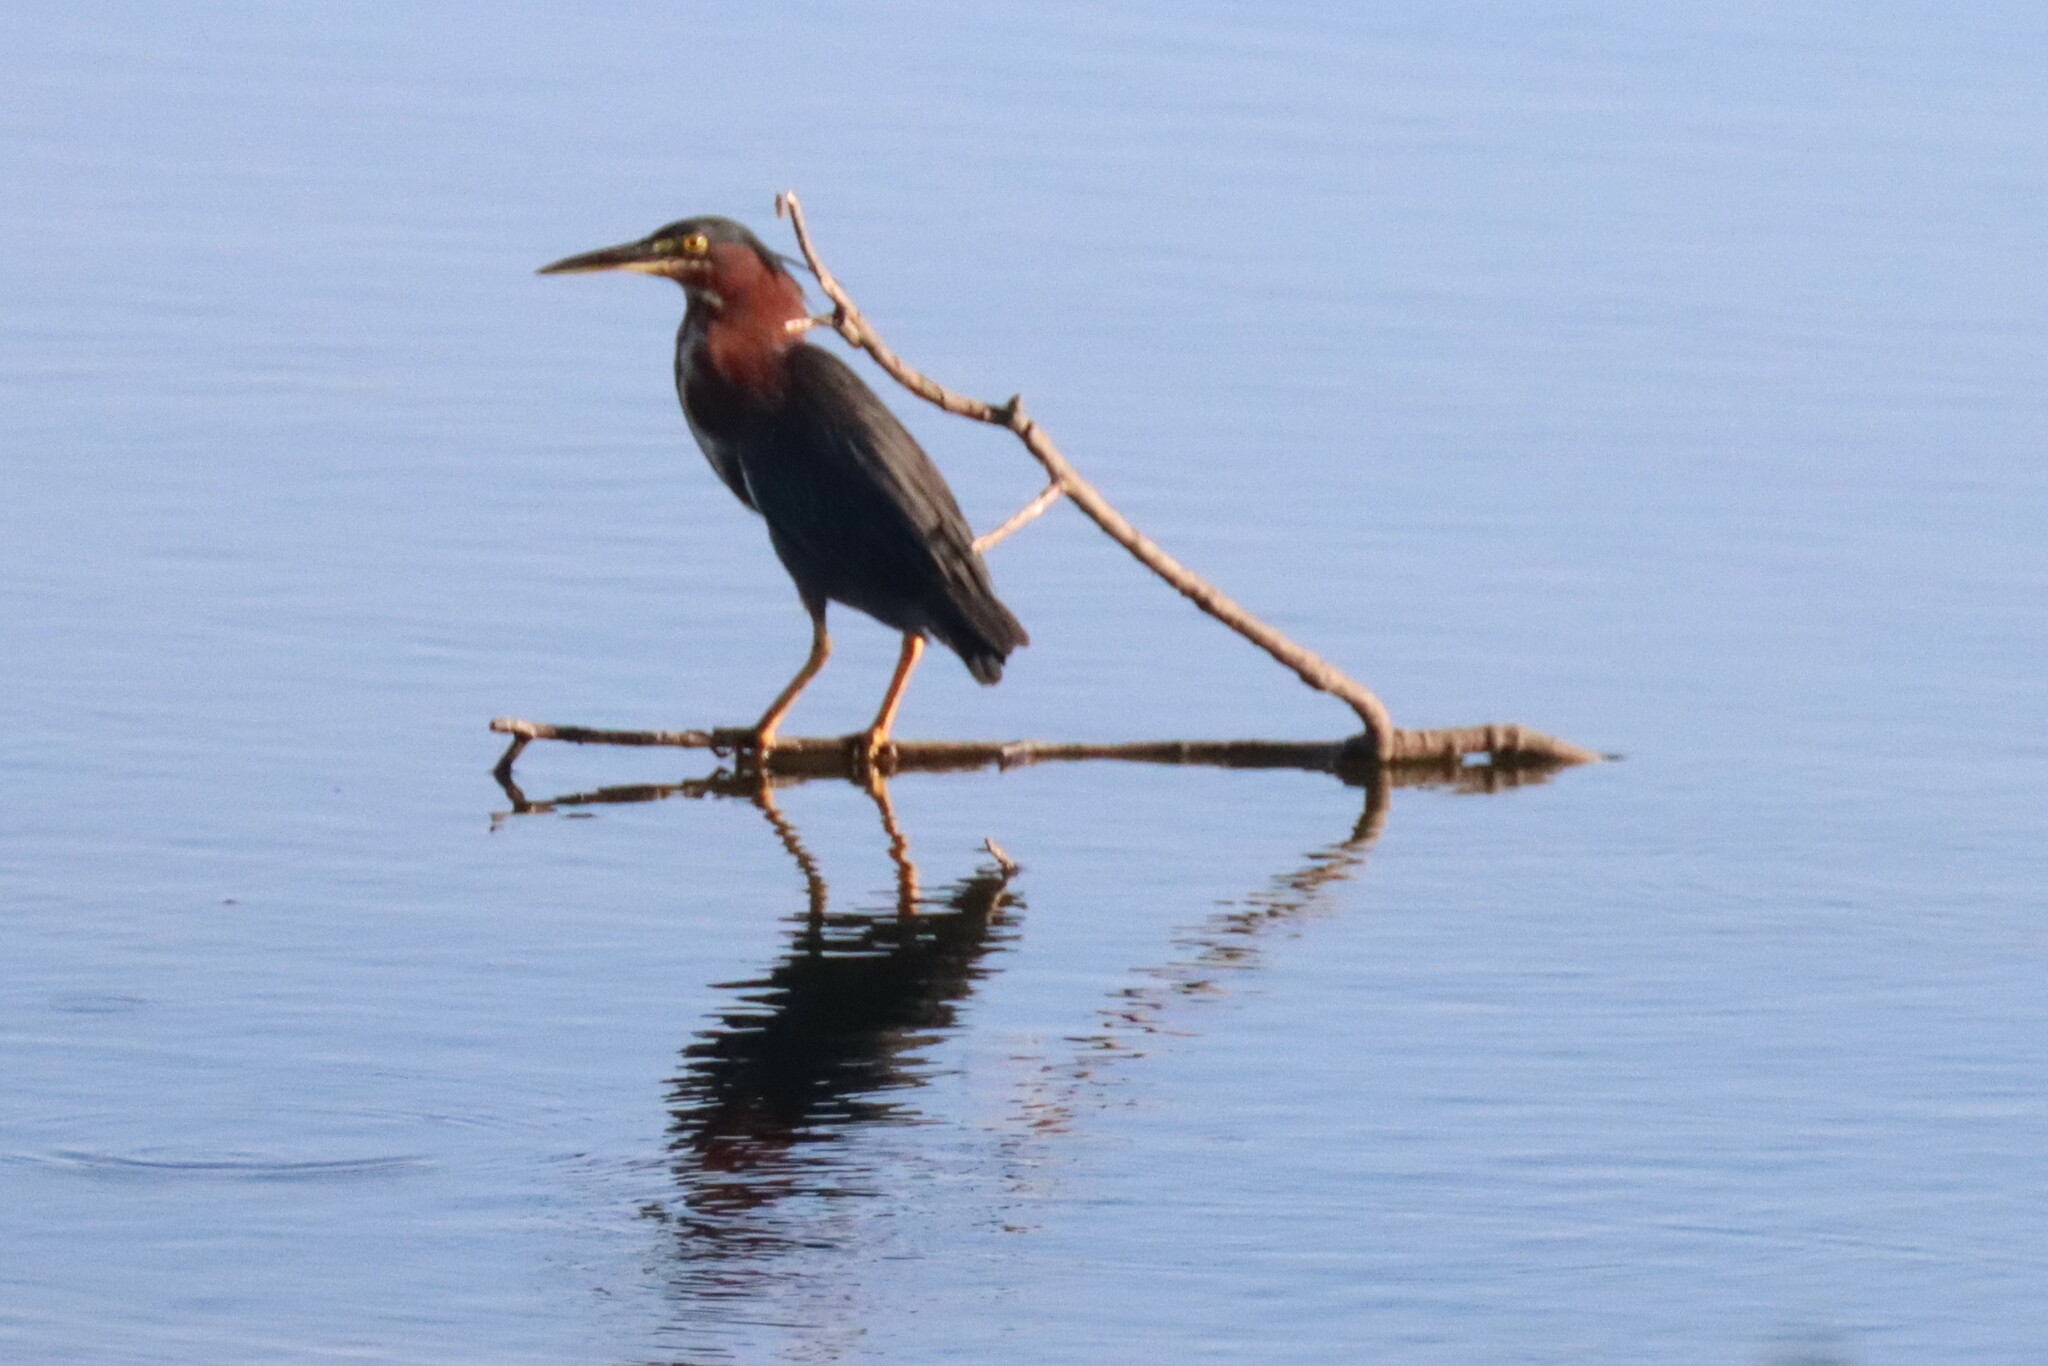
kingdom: Animalia
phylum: Chordata
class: Aves
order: Pelecaniformes
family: Ardeidae
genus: Butorides
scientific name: Butorides virescens
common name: Green heron
